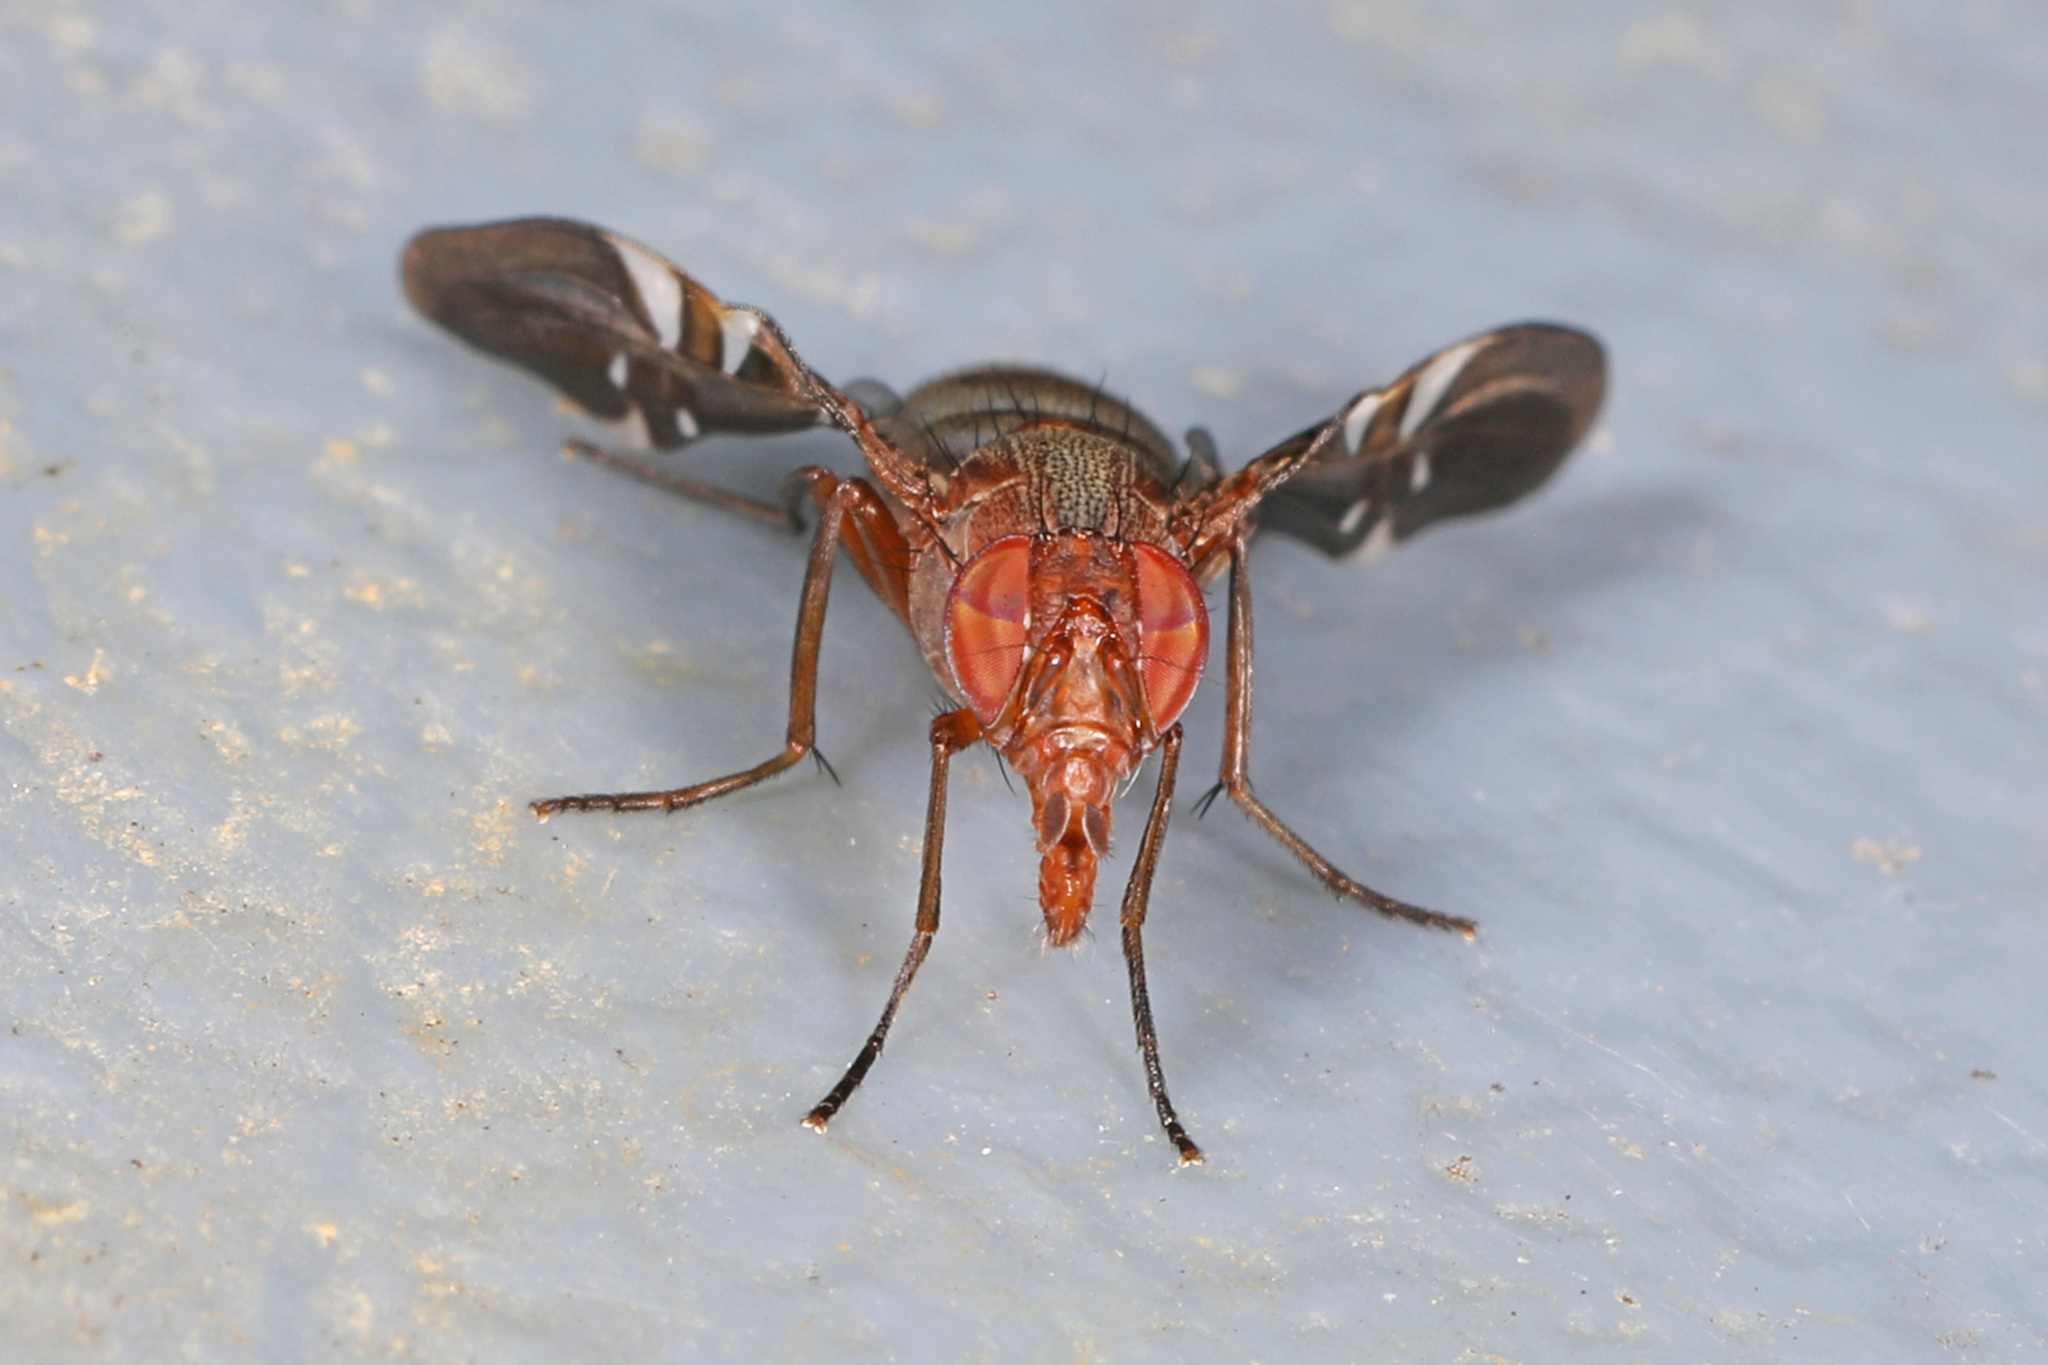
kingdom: Animalia
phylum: Arthropoda
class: Insecta
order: Diptera
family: Ulidiidae
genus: Delphinia
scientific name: Delphinia picta
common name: Common picture-winged fly
